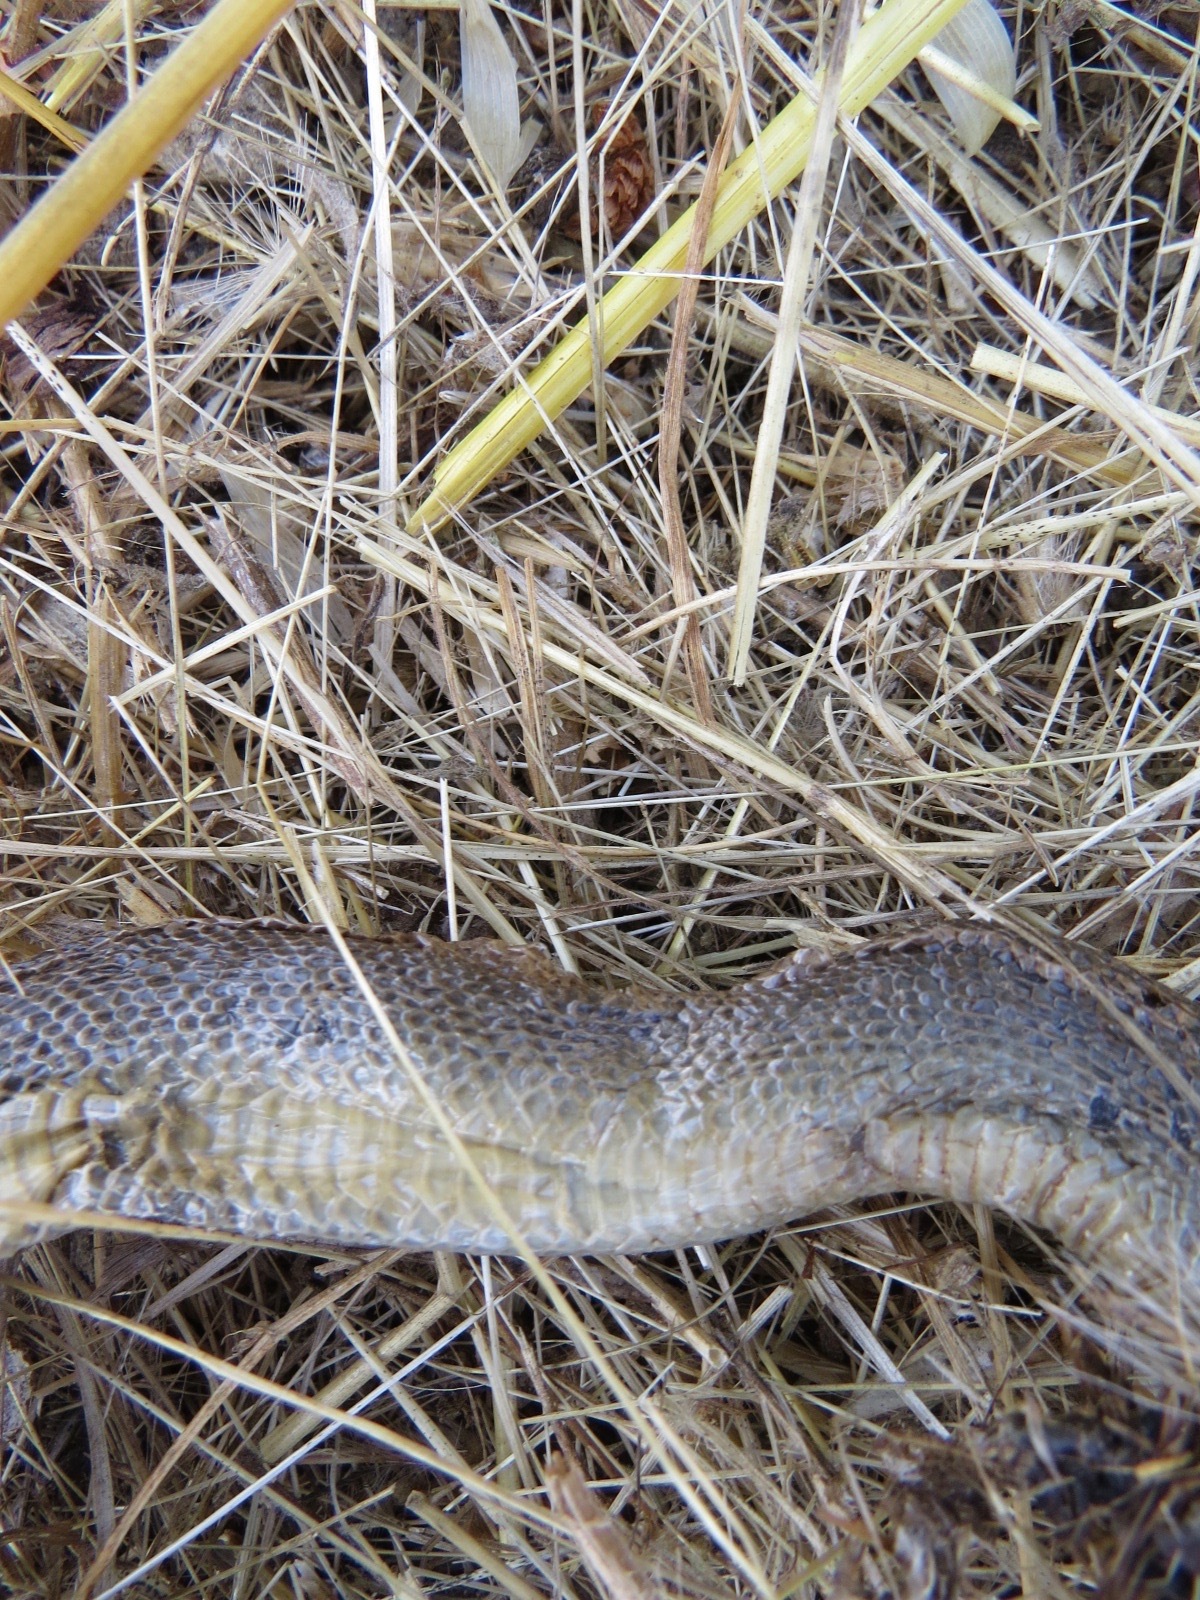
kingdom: Animalia
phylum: Chordata
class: Squamata
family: Boidae
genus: Charina
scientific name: Charina bottae
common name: Northern rubber boa
